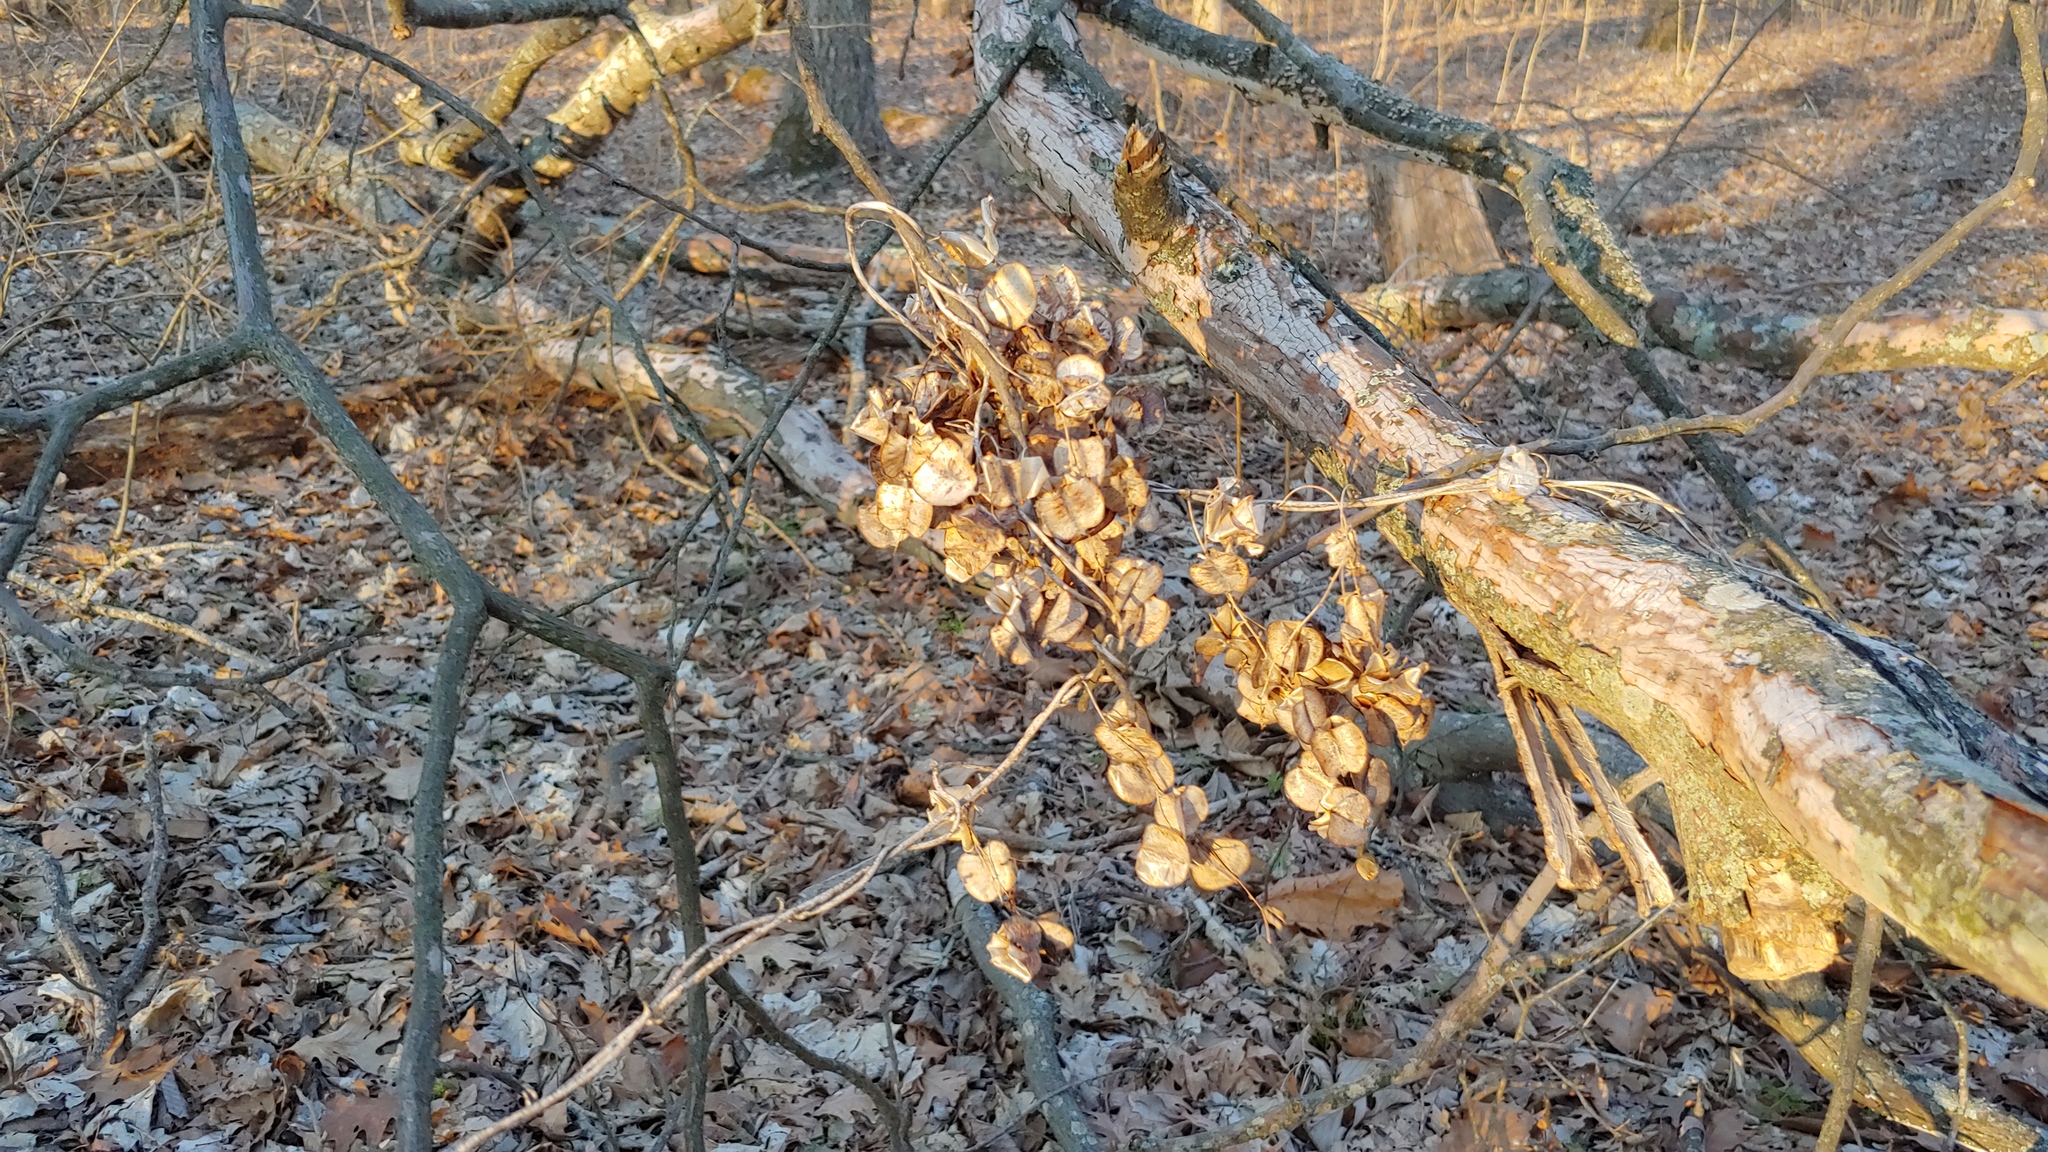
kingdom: Plantae
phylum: Tracheophyta
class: Liliopsida
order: Dioscoreales
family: Dioscoreaceae
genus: Dioscorea
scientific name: Dioscorea villosa
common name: Wild yam
